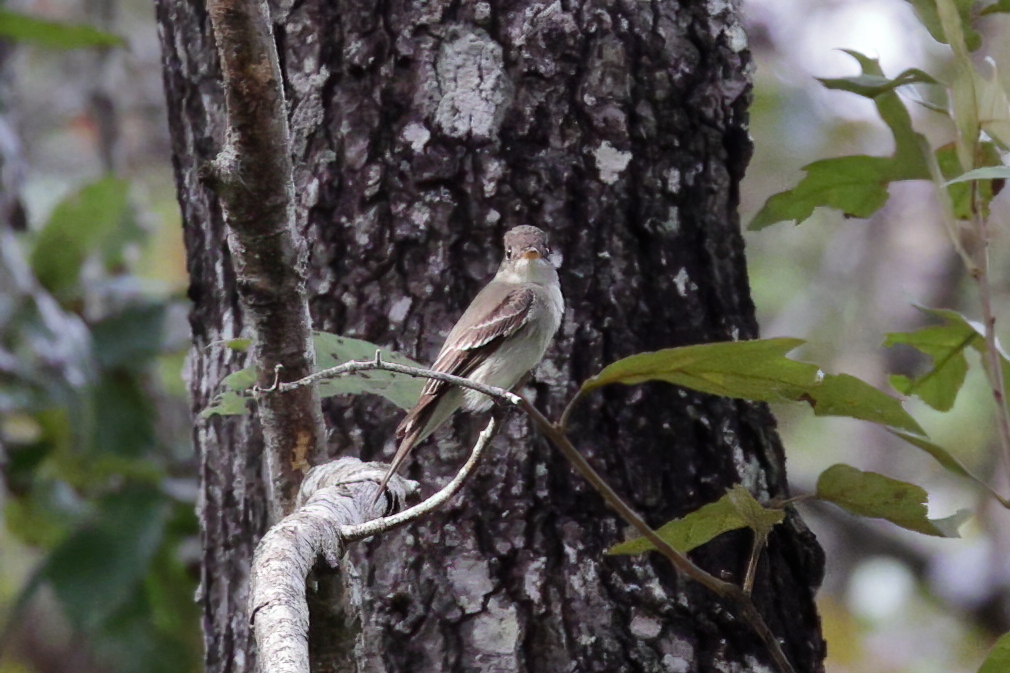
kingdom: Animalia
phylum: Chordata
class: Aves
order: Passeriformes
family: Tyrannidae
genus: Contopus
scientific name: Contopus virens
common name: Eastern wood-pewee
